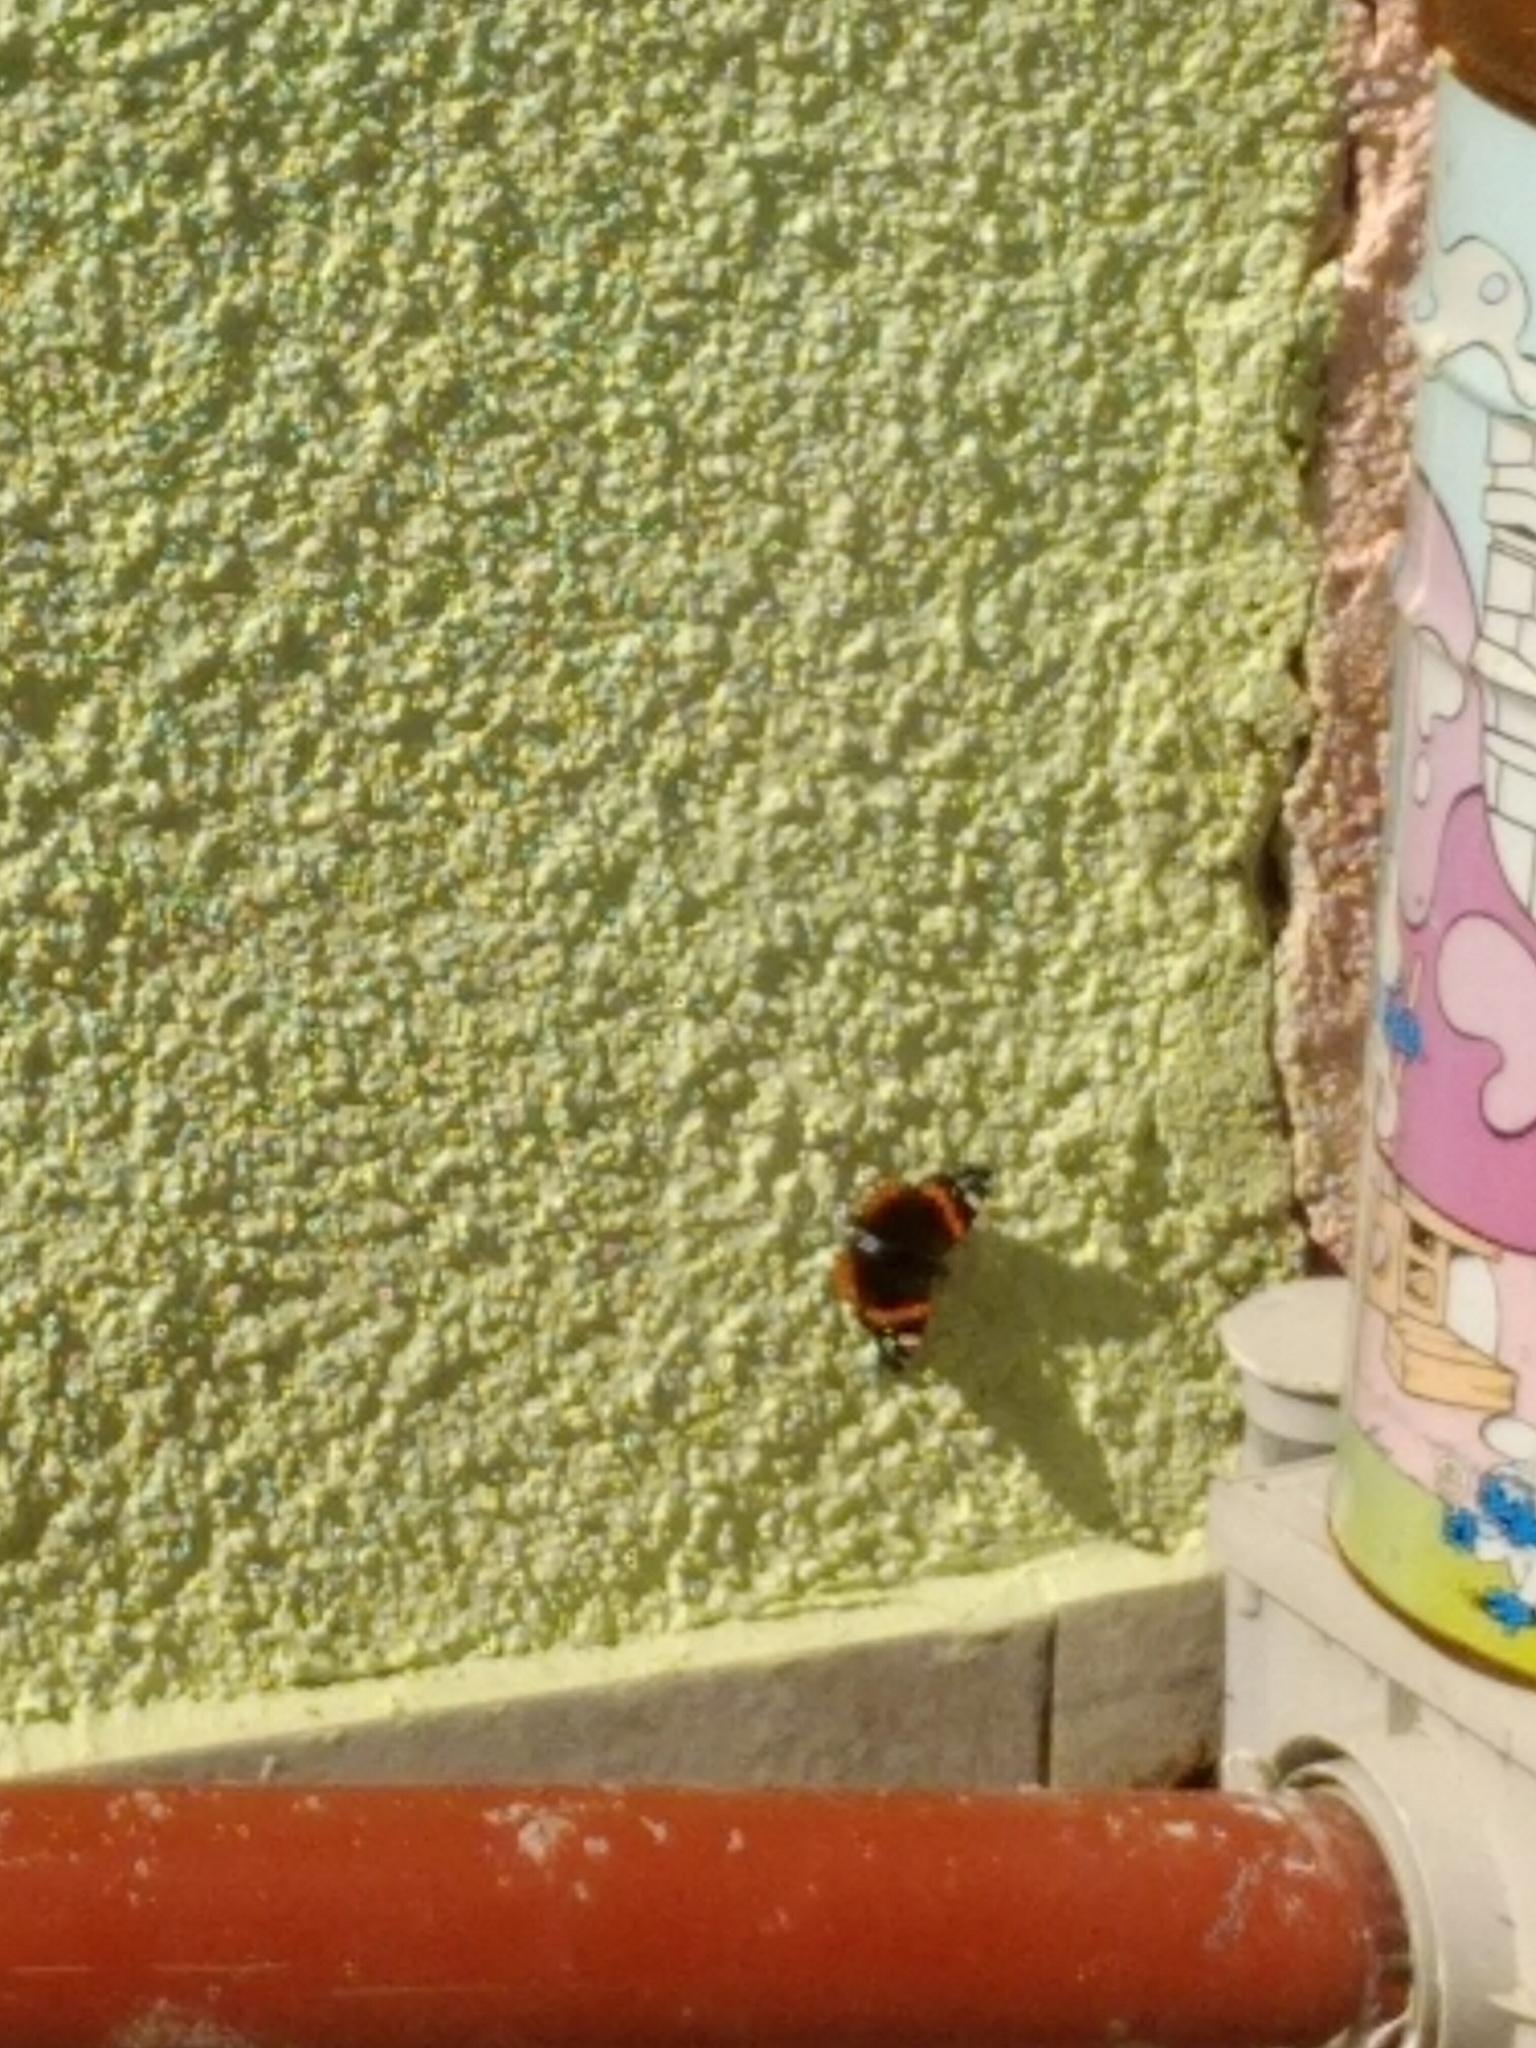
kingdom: Animalia
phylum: Arthropoda
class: Insecta
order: Lepidoptera
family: Nymphalidae
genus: Vanessa
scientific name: Vanessa atalanta
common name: Red admiral
